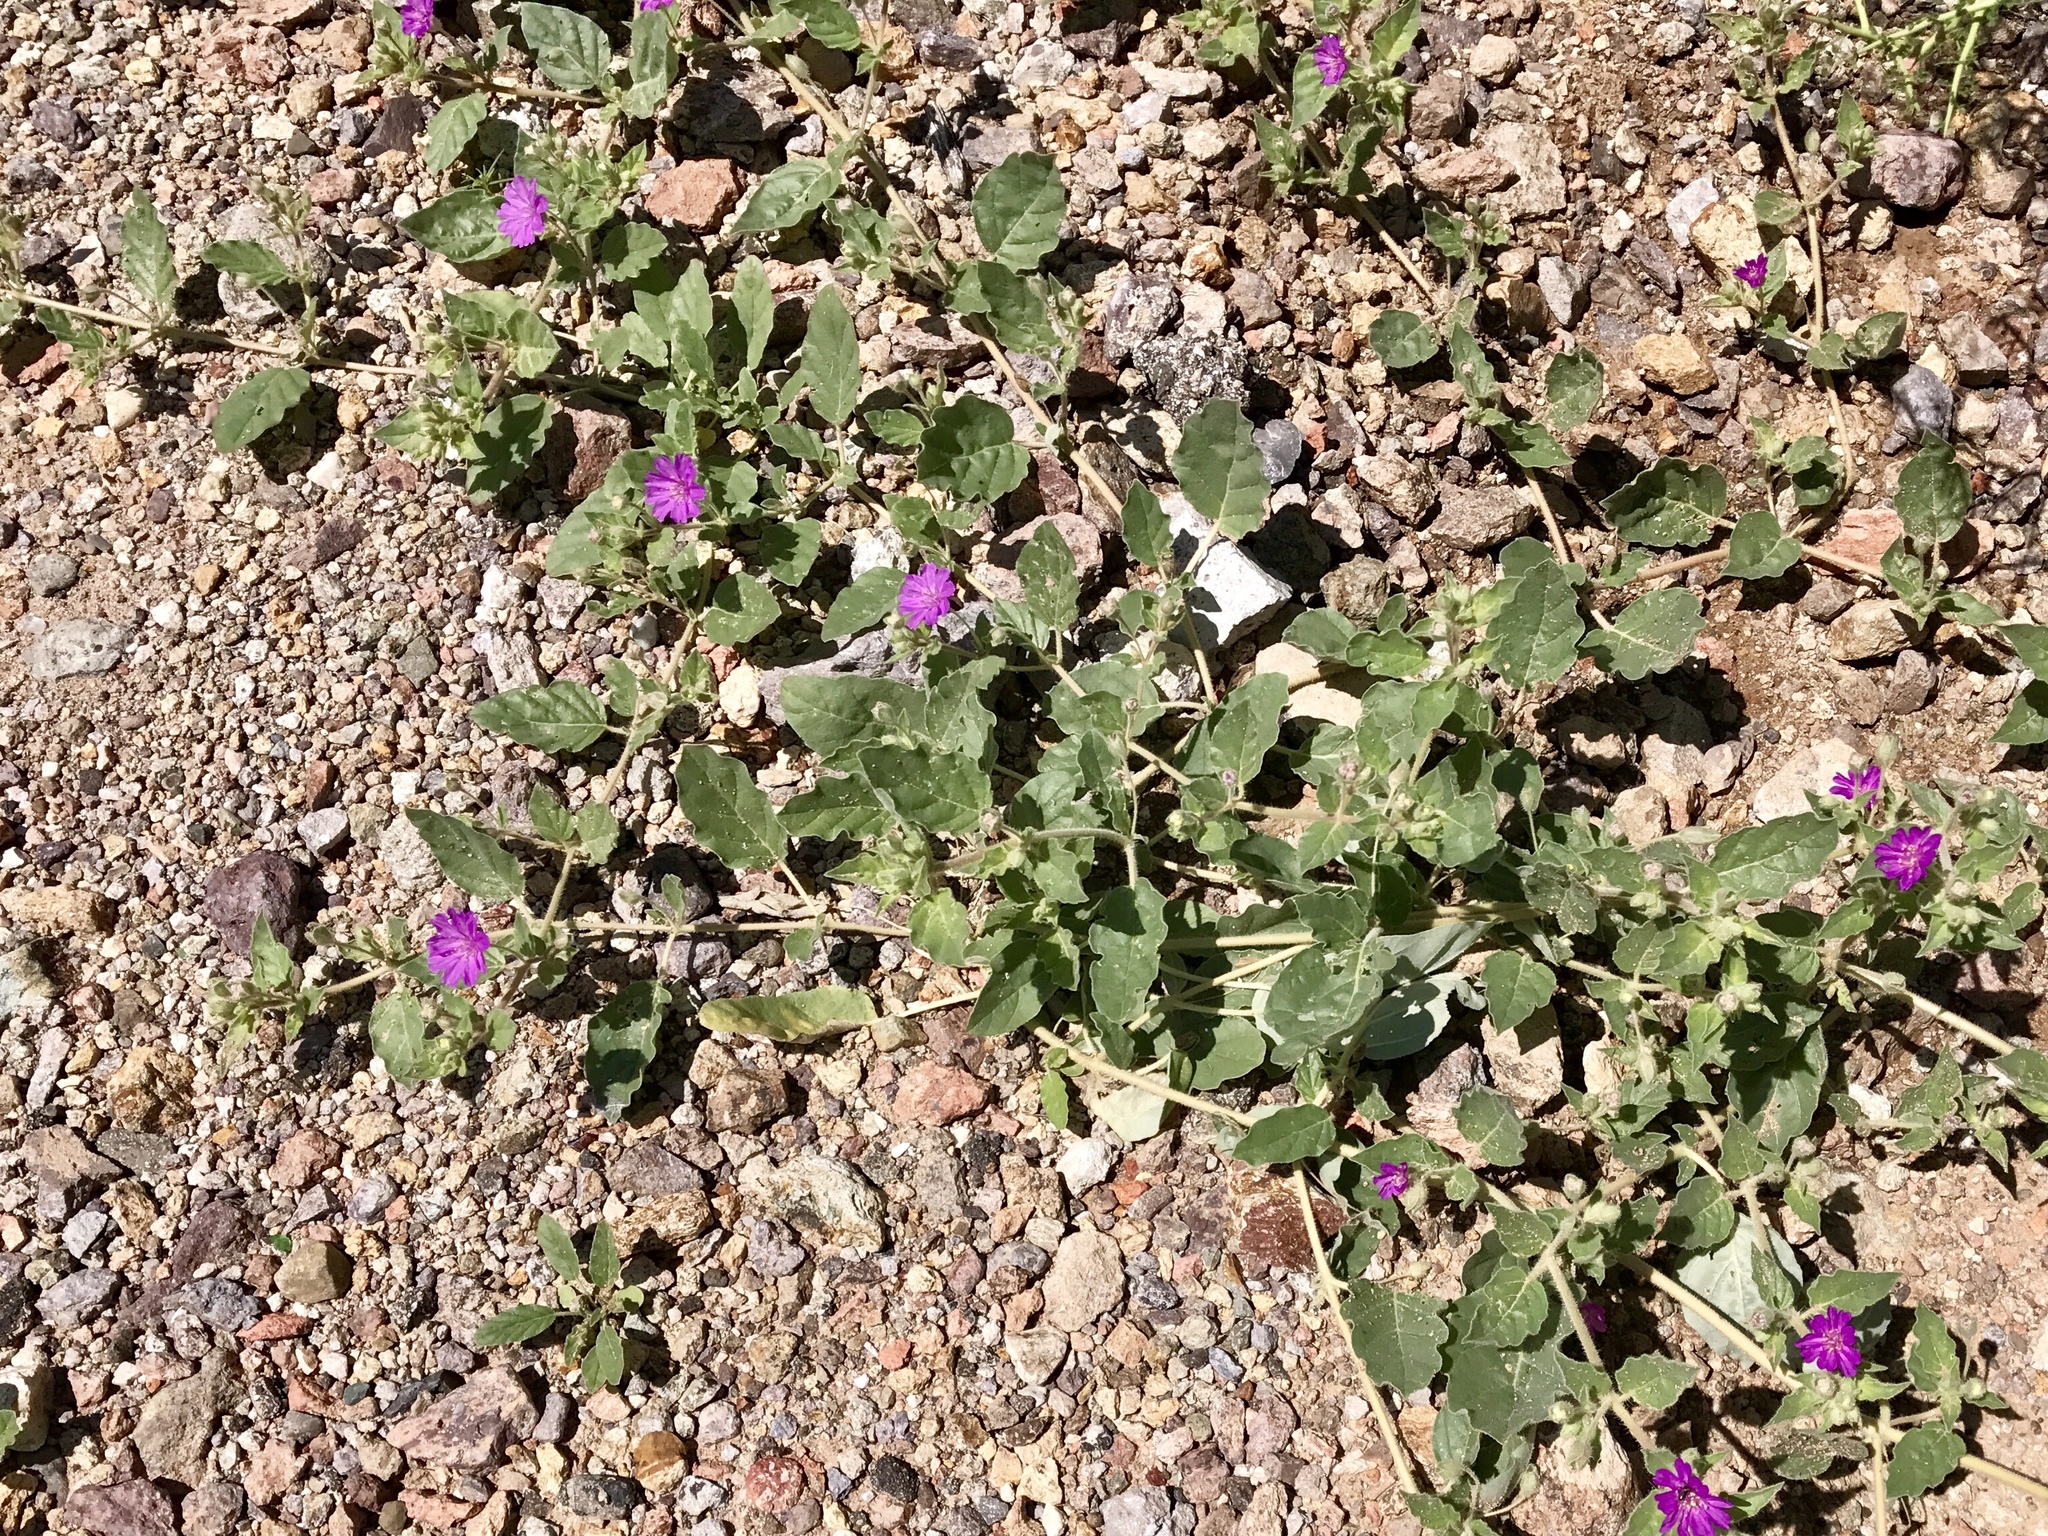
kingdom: Plantae
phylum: Tracheophyta
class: Magnoliopsida
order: Caryophyllales
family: Nyctaginaceae
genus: Allionia
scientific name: Allionia incarnata
